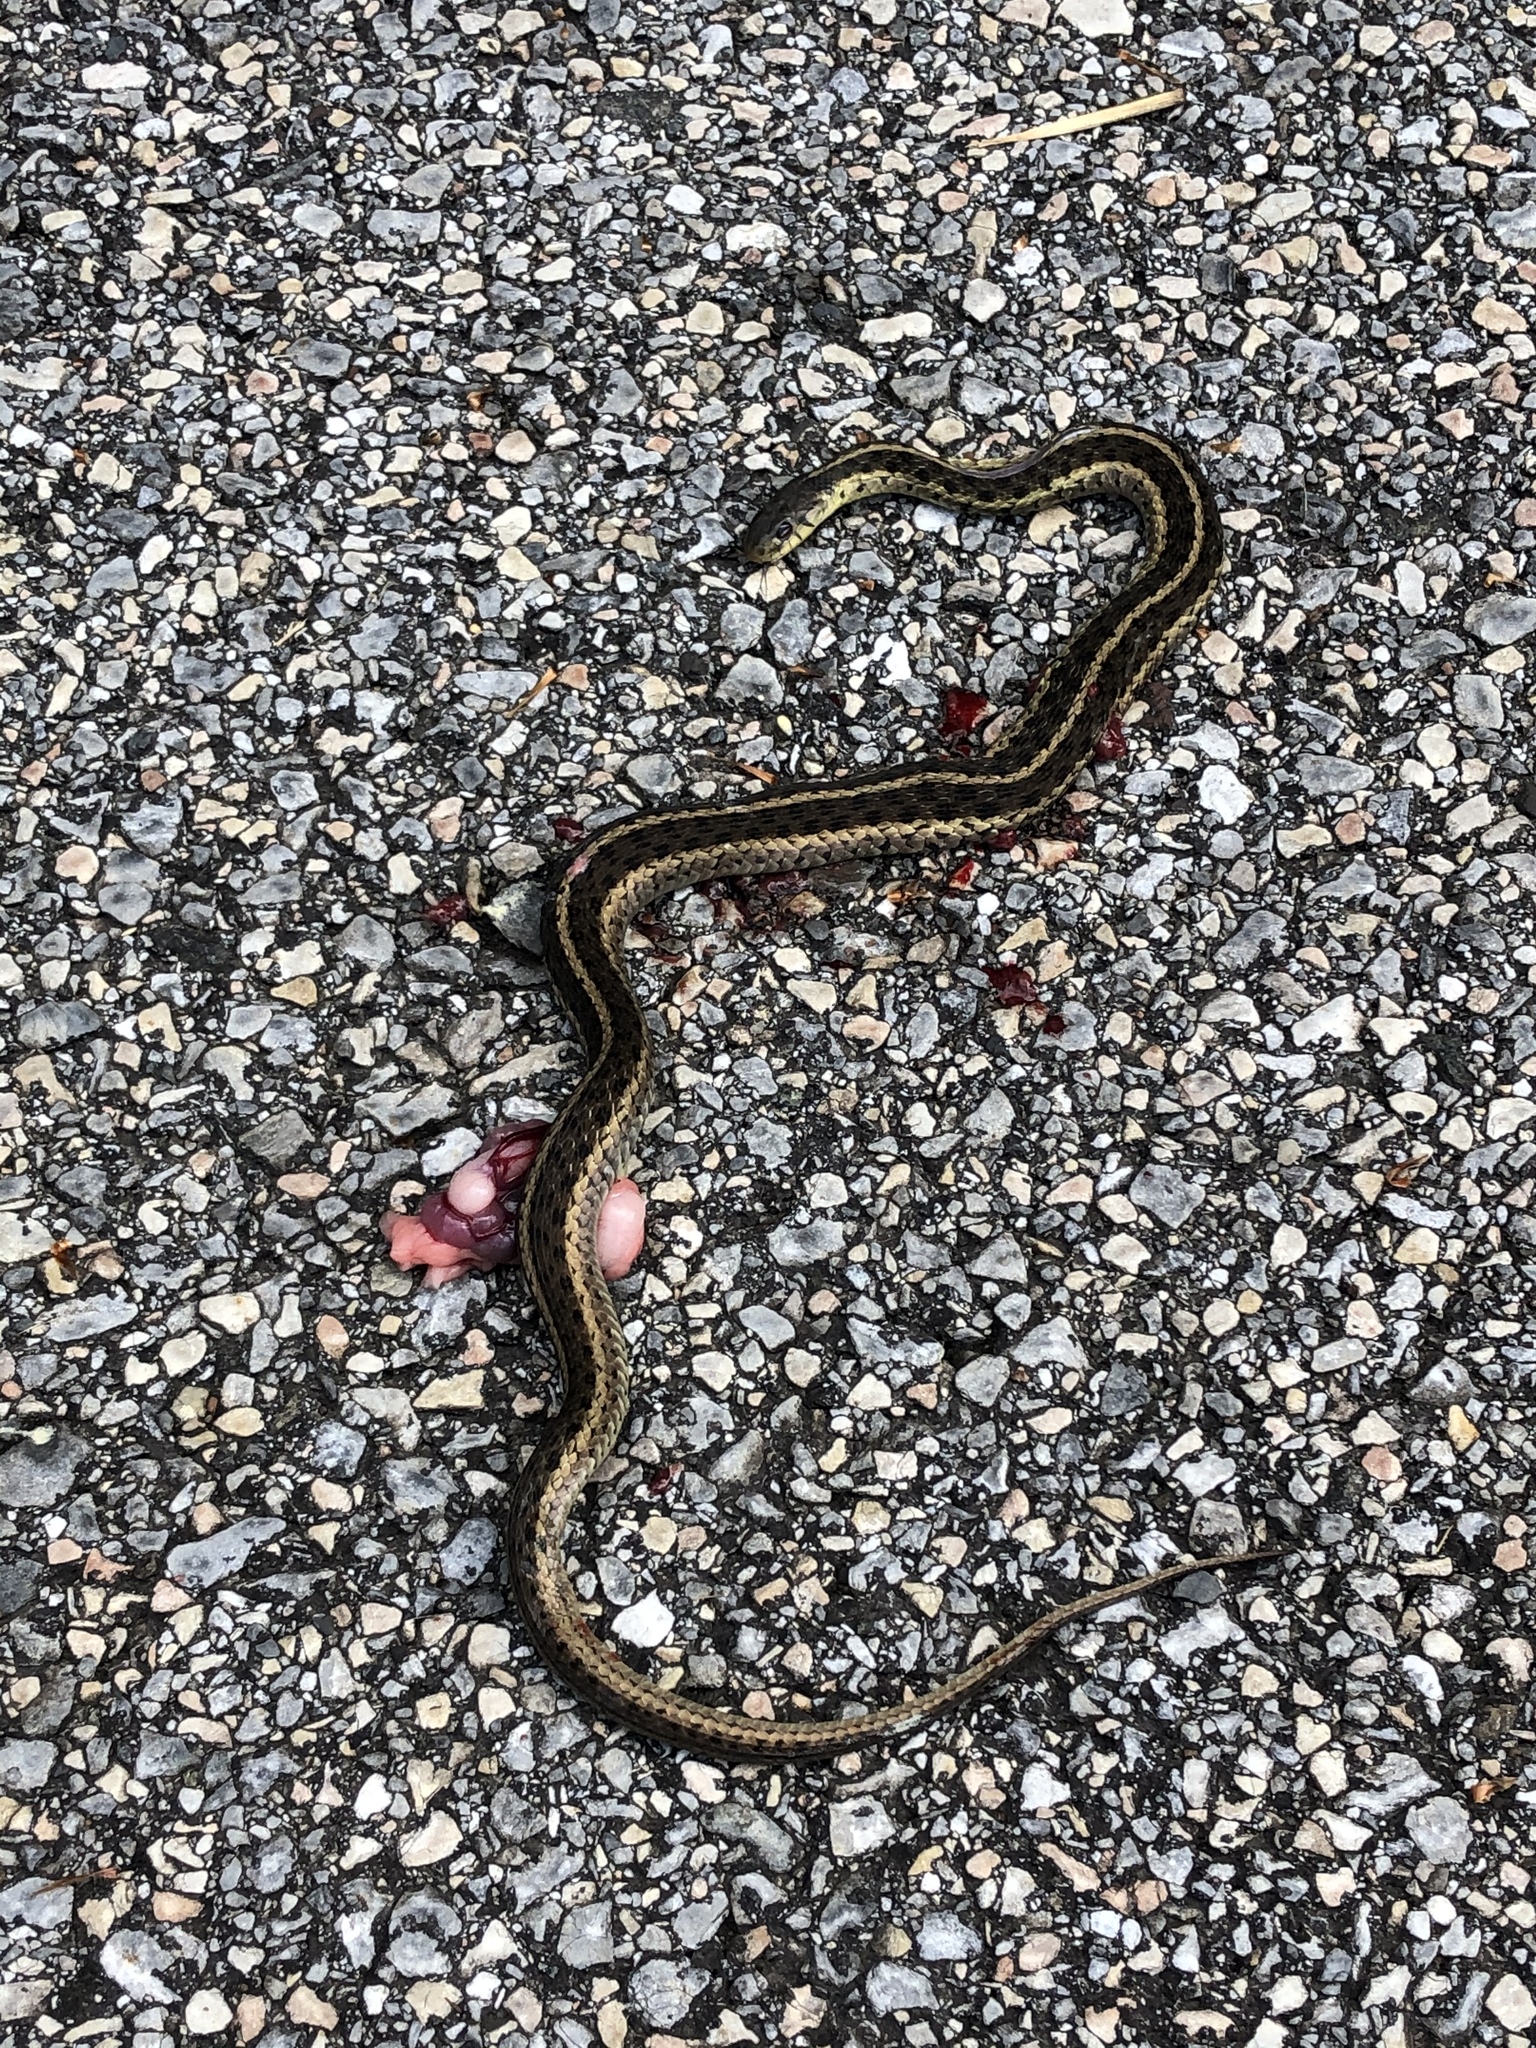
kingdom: Animalia
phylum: Chordata
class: Squamata
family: Colubridae
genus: Thamnophis
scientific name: Thamnophis sirtalis
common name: Common garter snake
